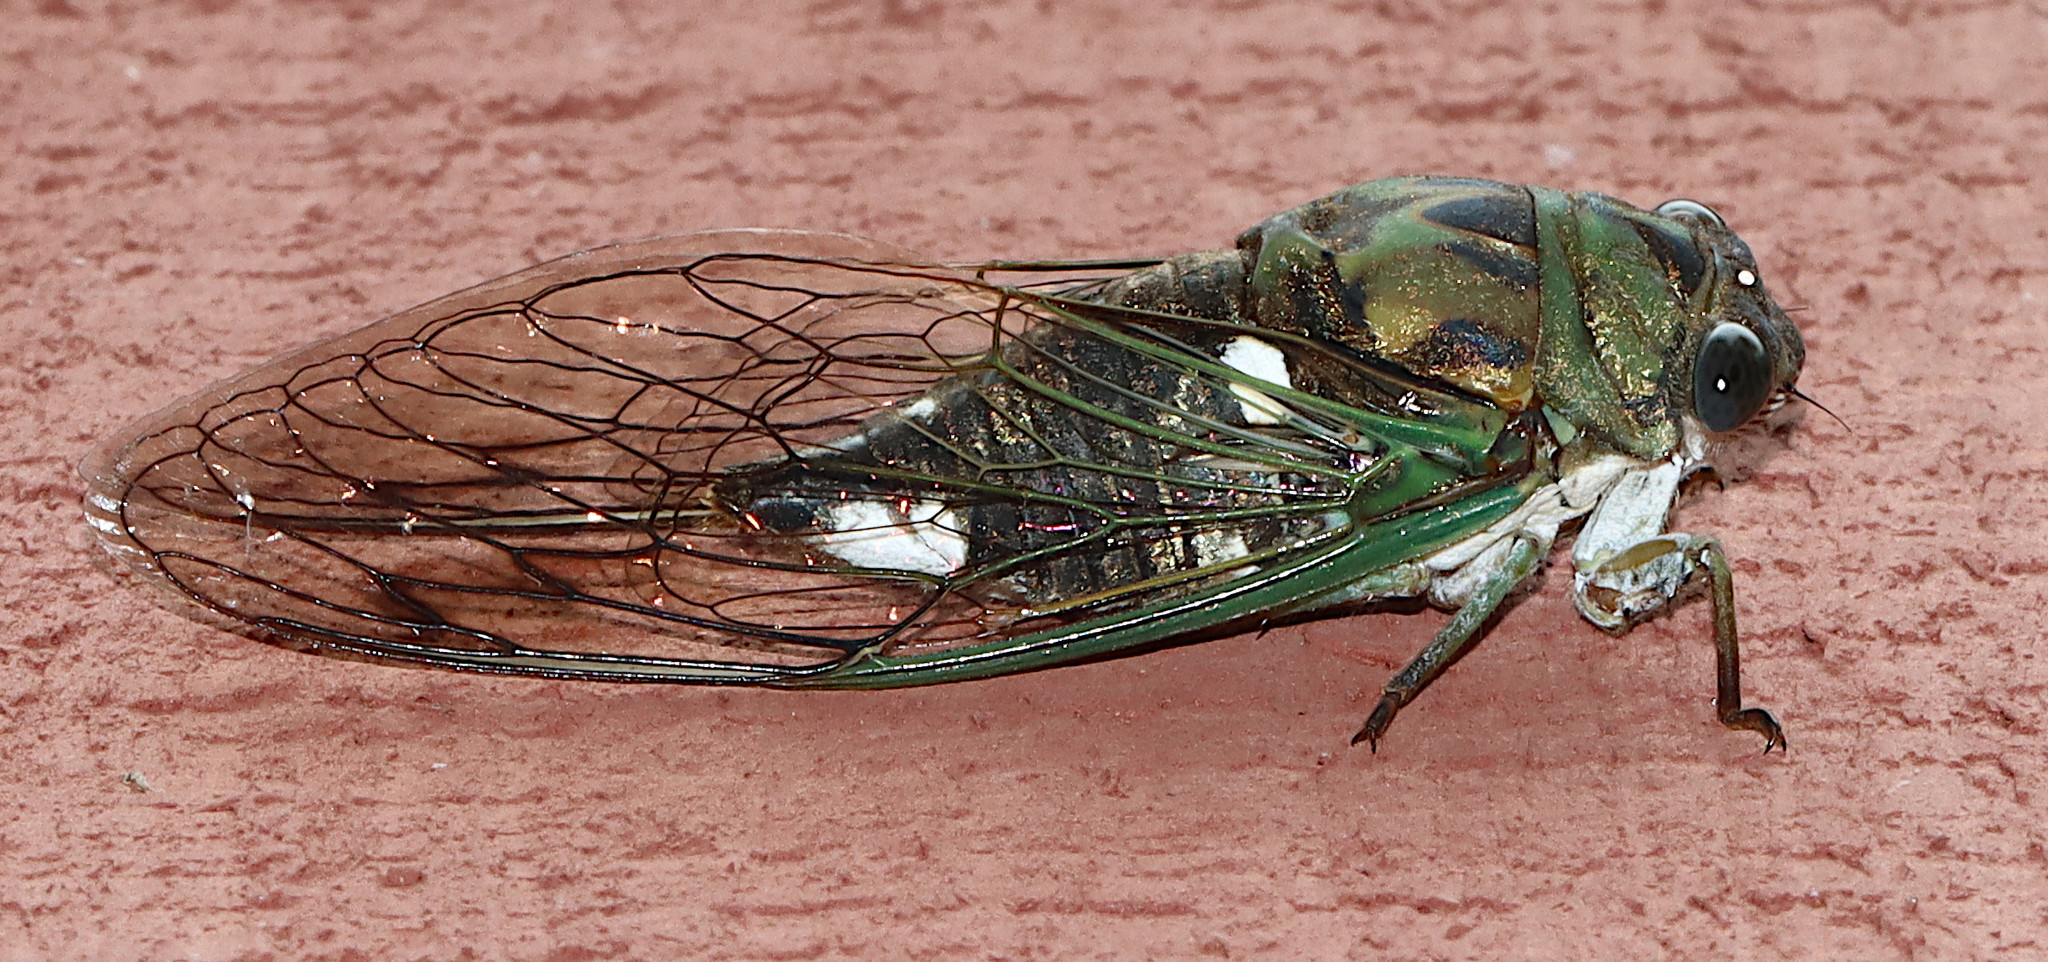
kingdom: Animalia
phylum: Arthropoda
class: Insecta
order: Hemiptera
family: Cicadidae
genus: Neotibicen
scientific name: Neotibicen pruinosus
